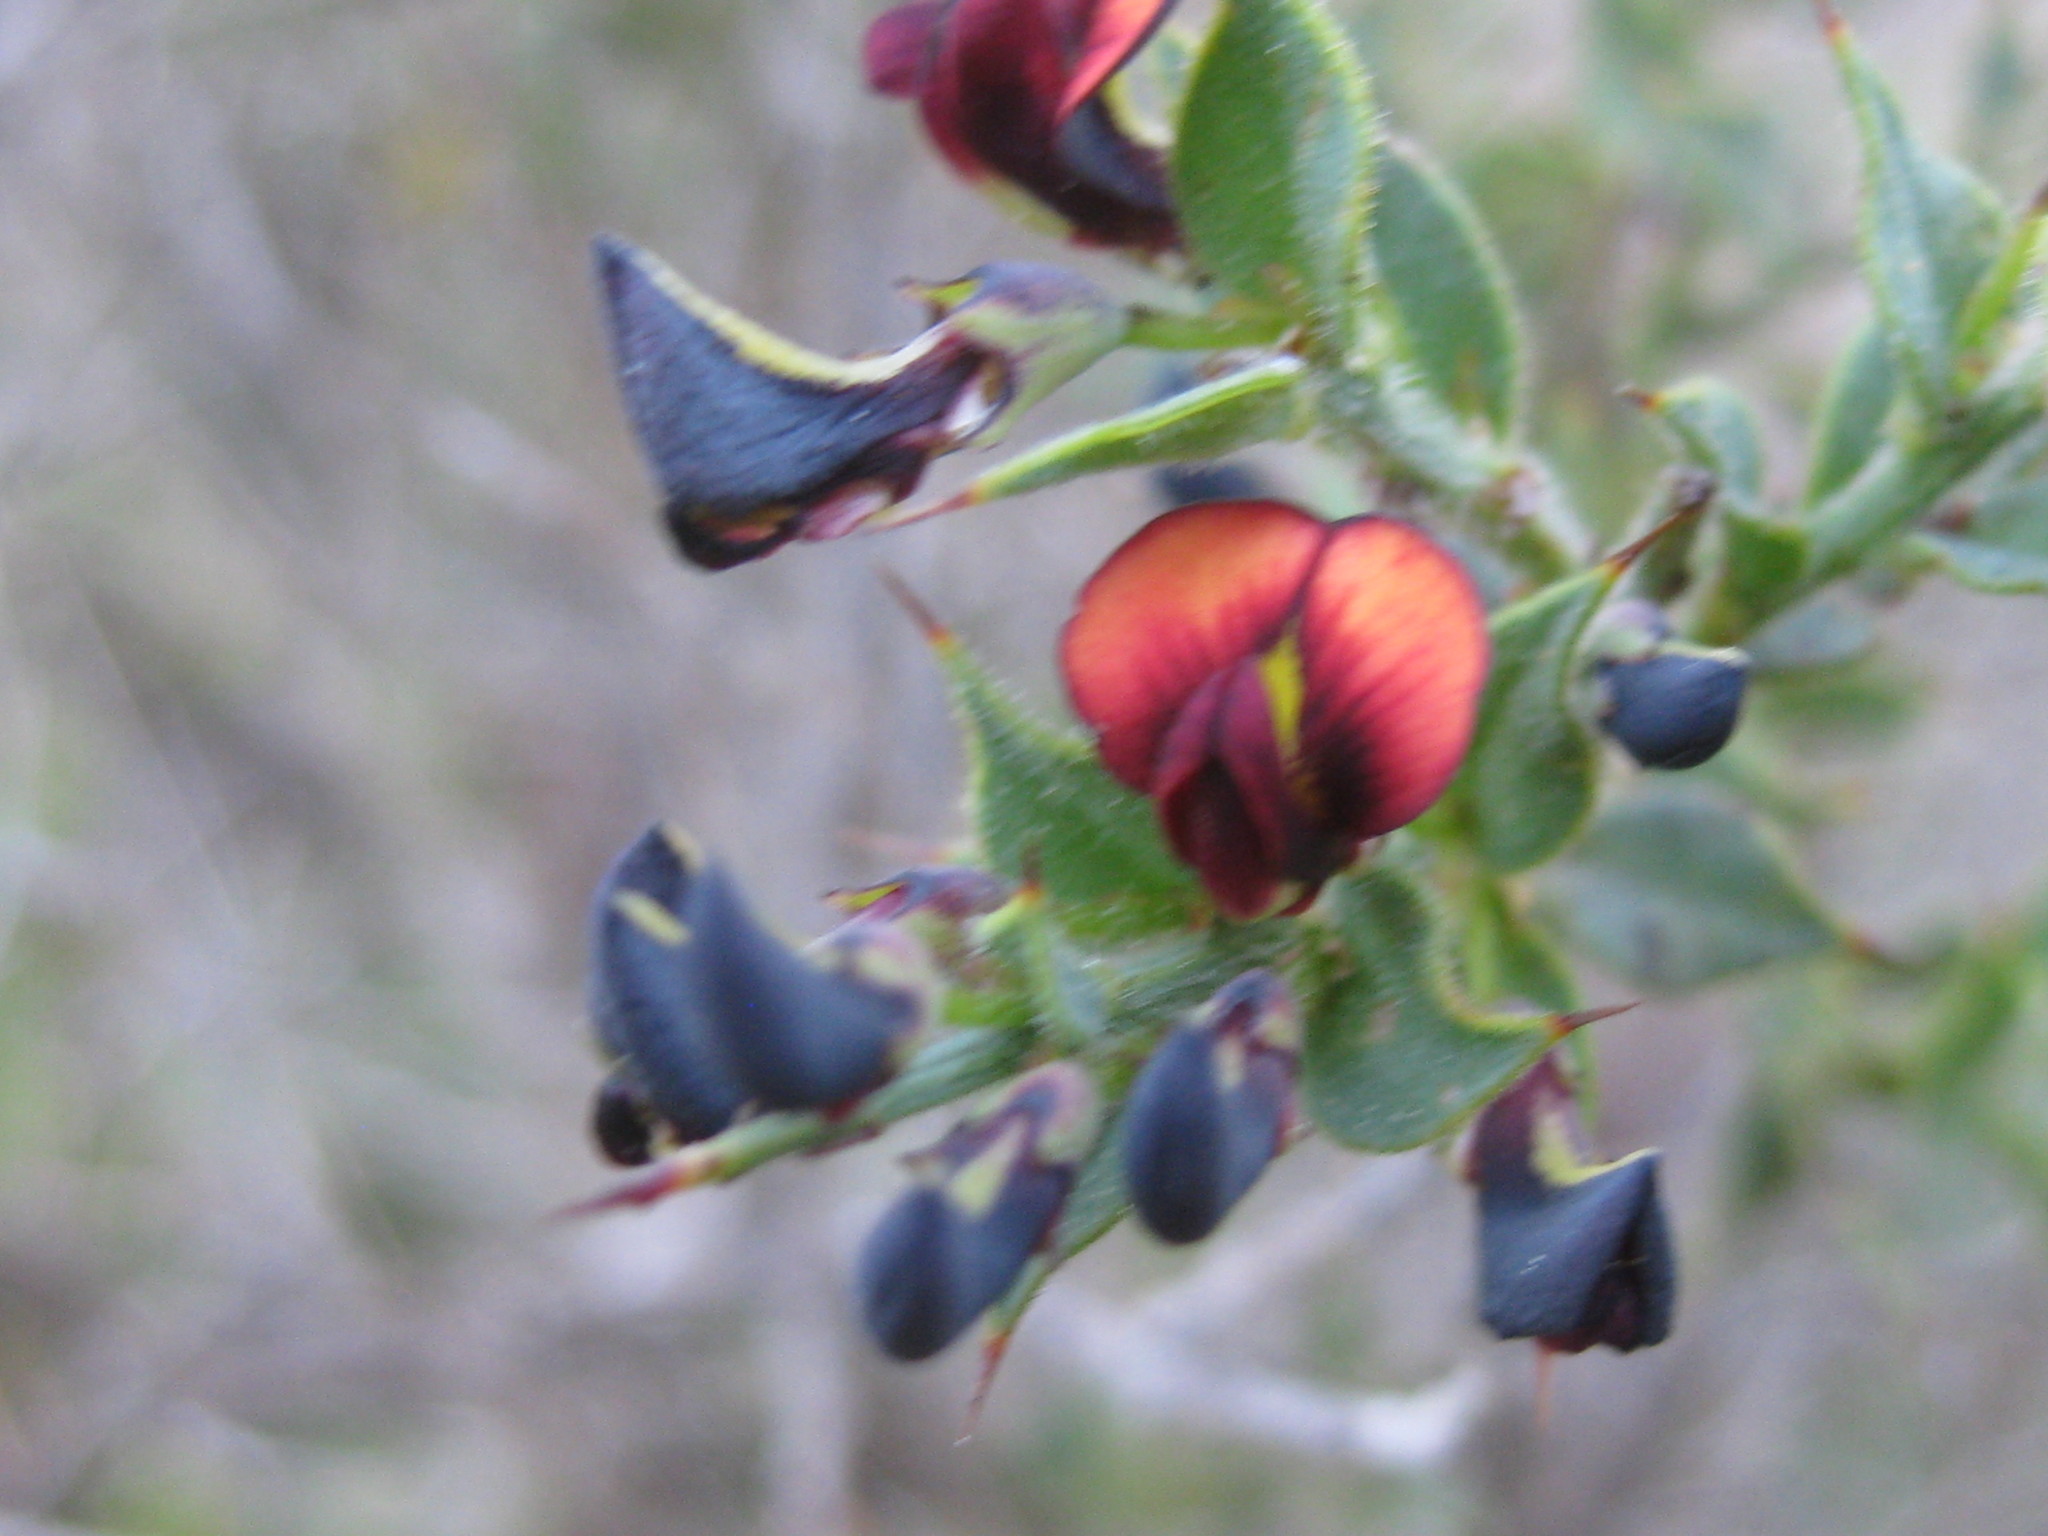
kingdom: Plantae
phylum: Tracheophyta
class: Magnoliopsida
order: Fabales
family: Fabaceae
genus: Daviesia
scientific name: Daviesia arenaria
